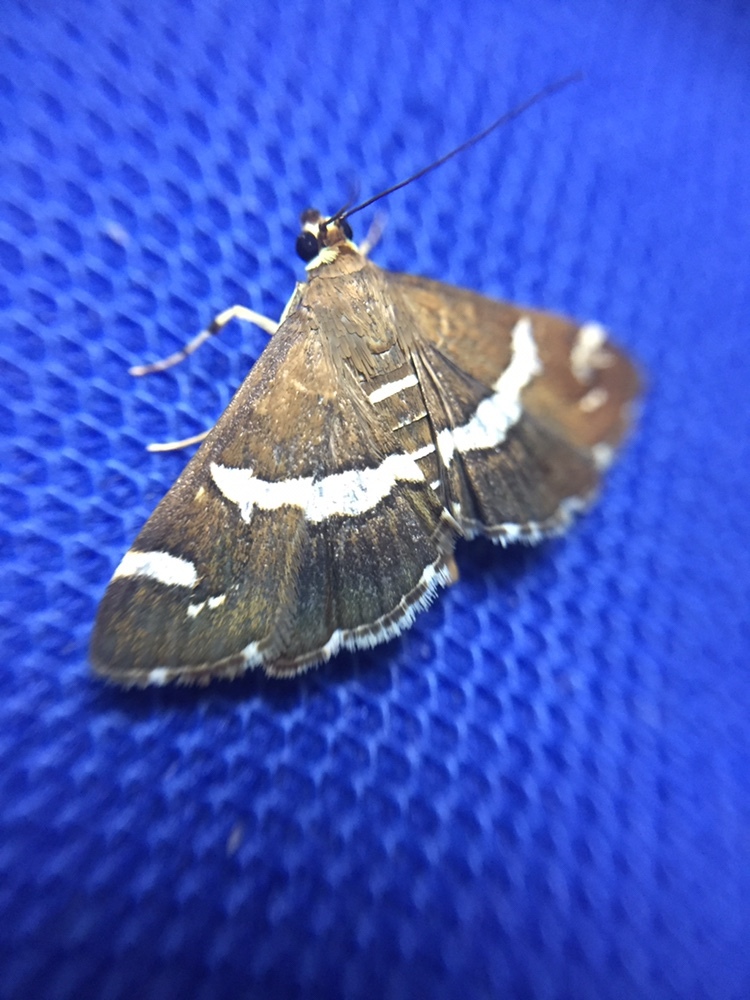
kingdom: Animalia
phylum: Arthropoda
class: Insecta
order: Lepidoptera
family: Crambidae
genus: Spoladea
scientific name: Spoladea recurvalis
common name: Beet webworm moth
